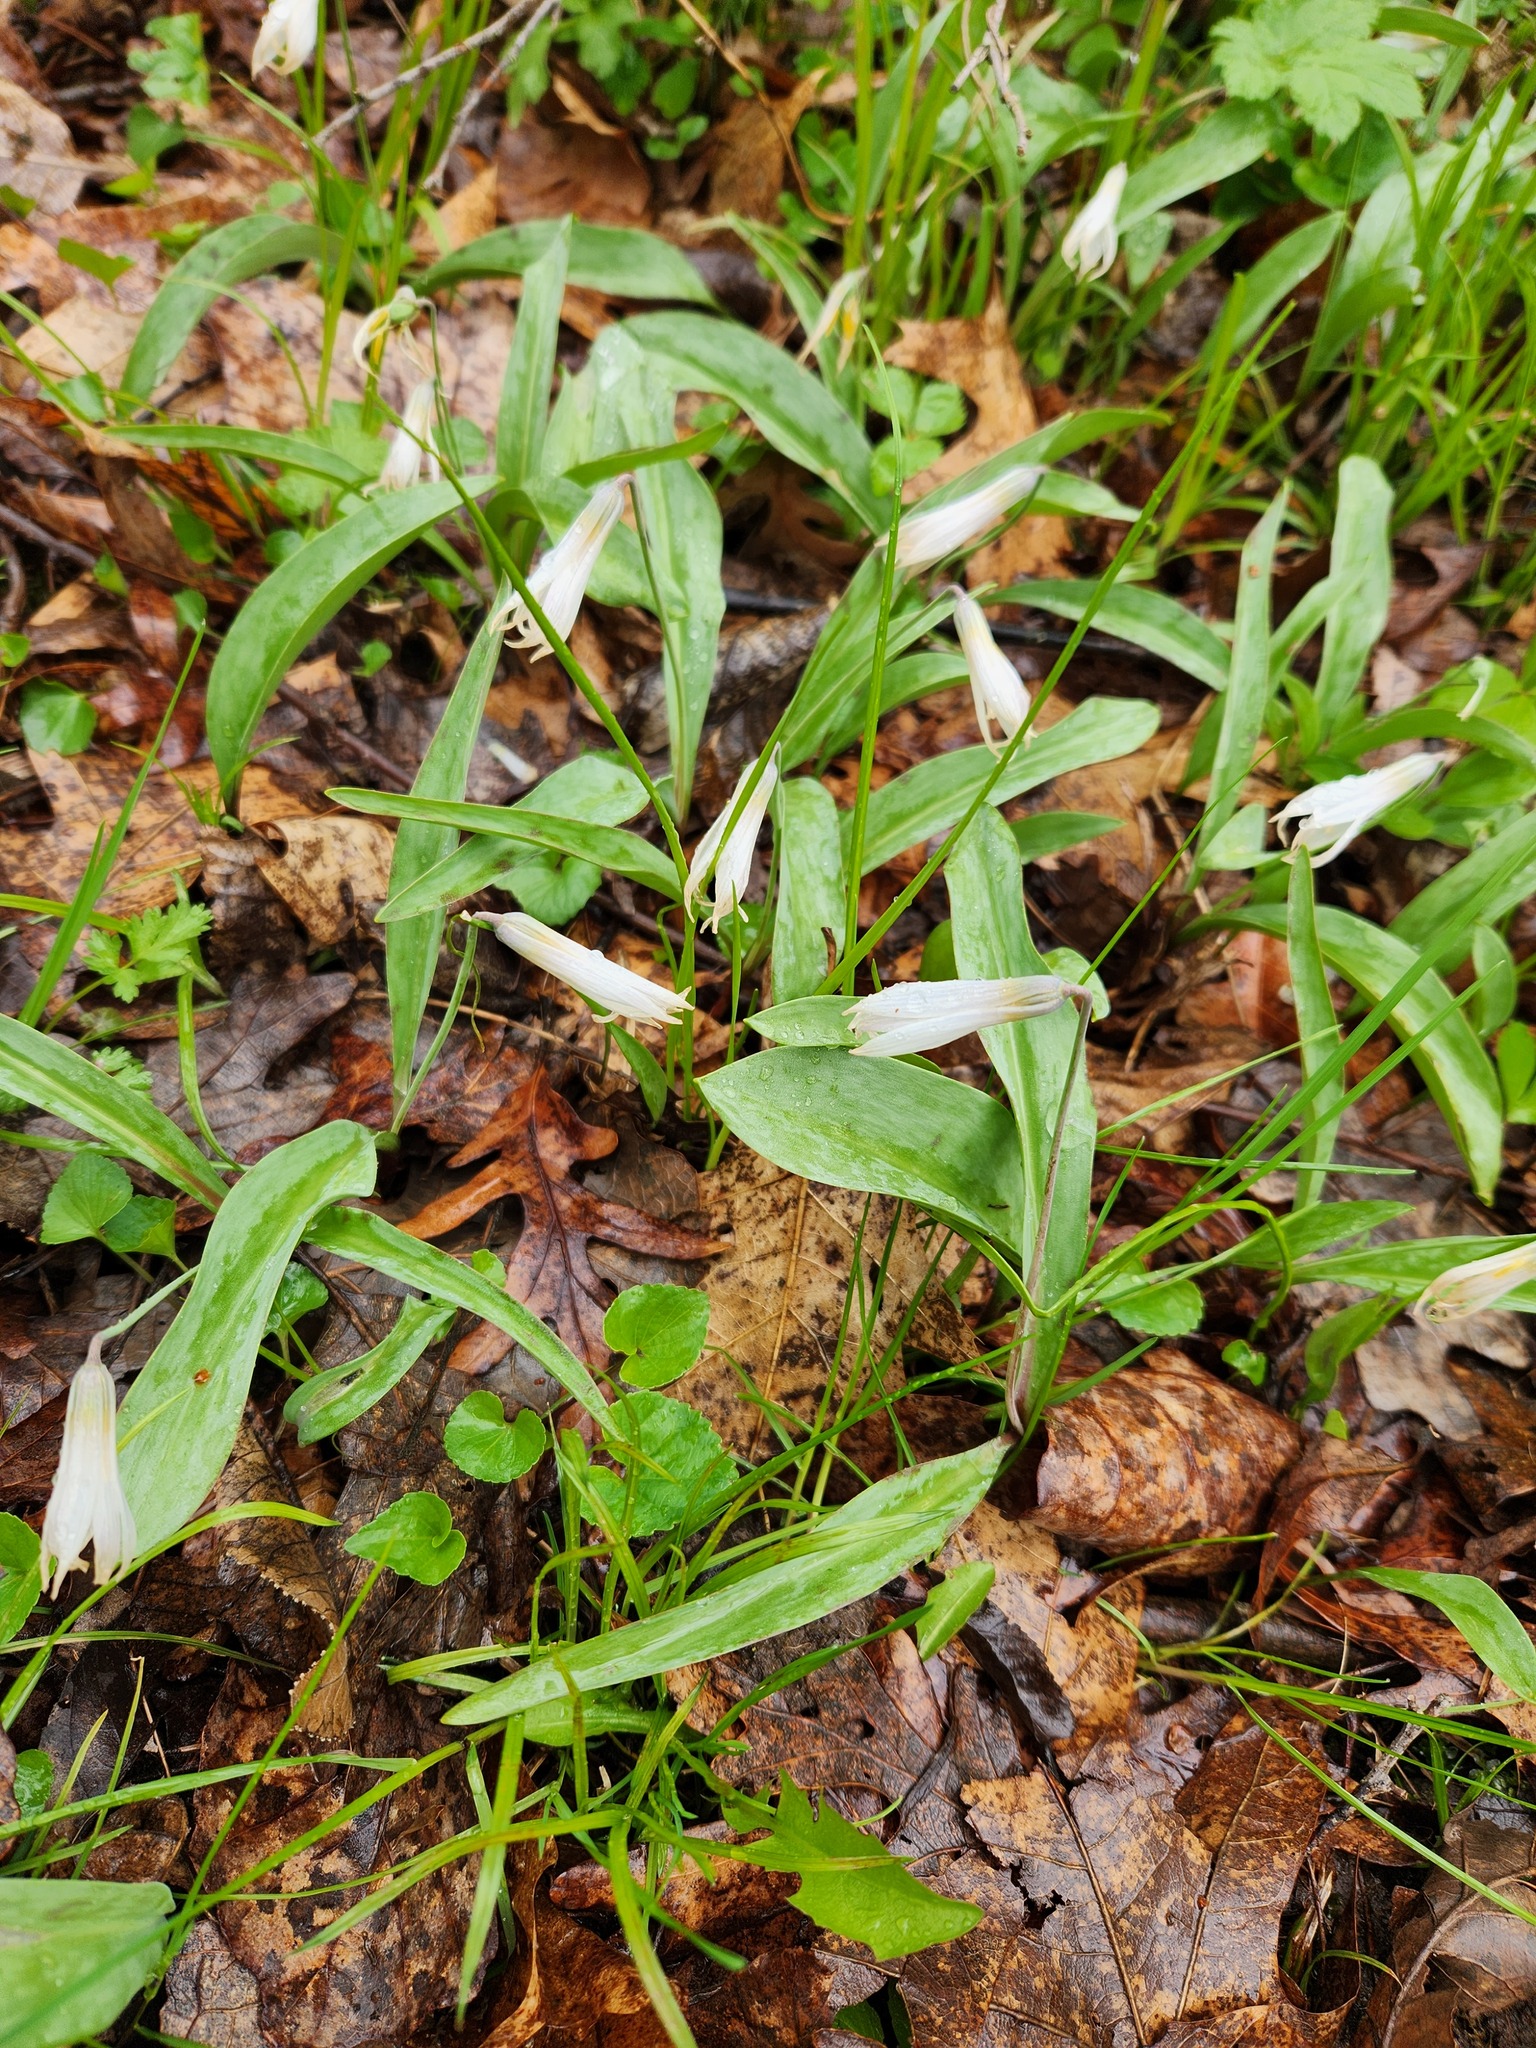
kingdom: Plantae
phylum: Tracheophyta
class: Liliopsida
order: Liliales
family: Liliaceae
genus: Erythronium
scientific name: Erythronium albidum
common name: White trout-lily
